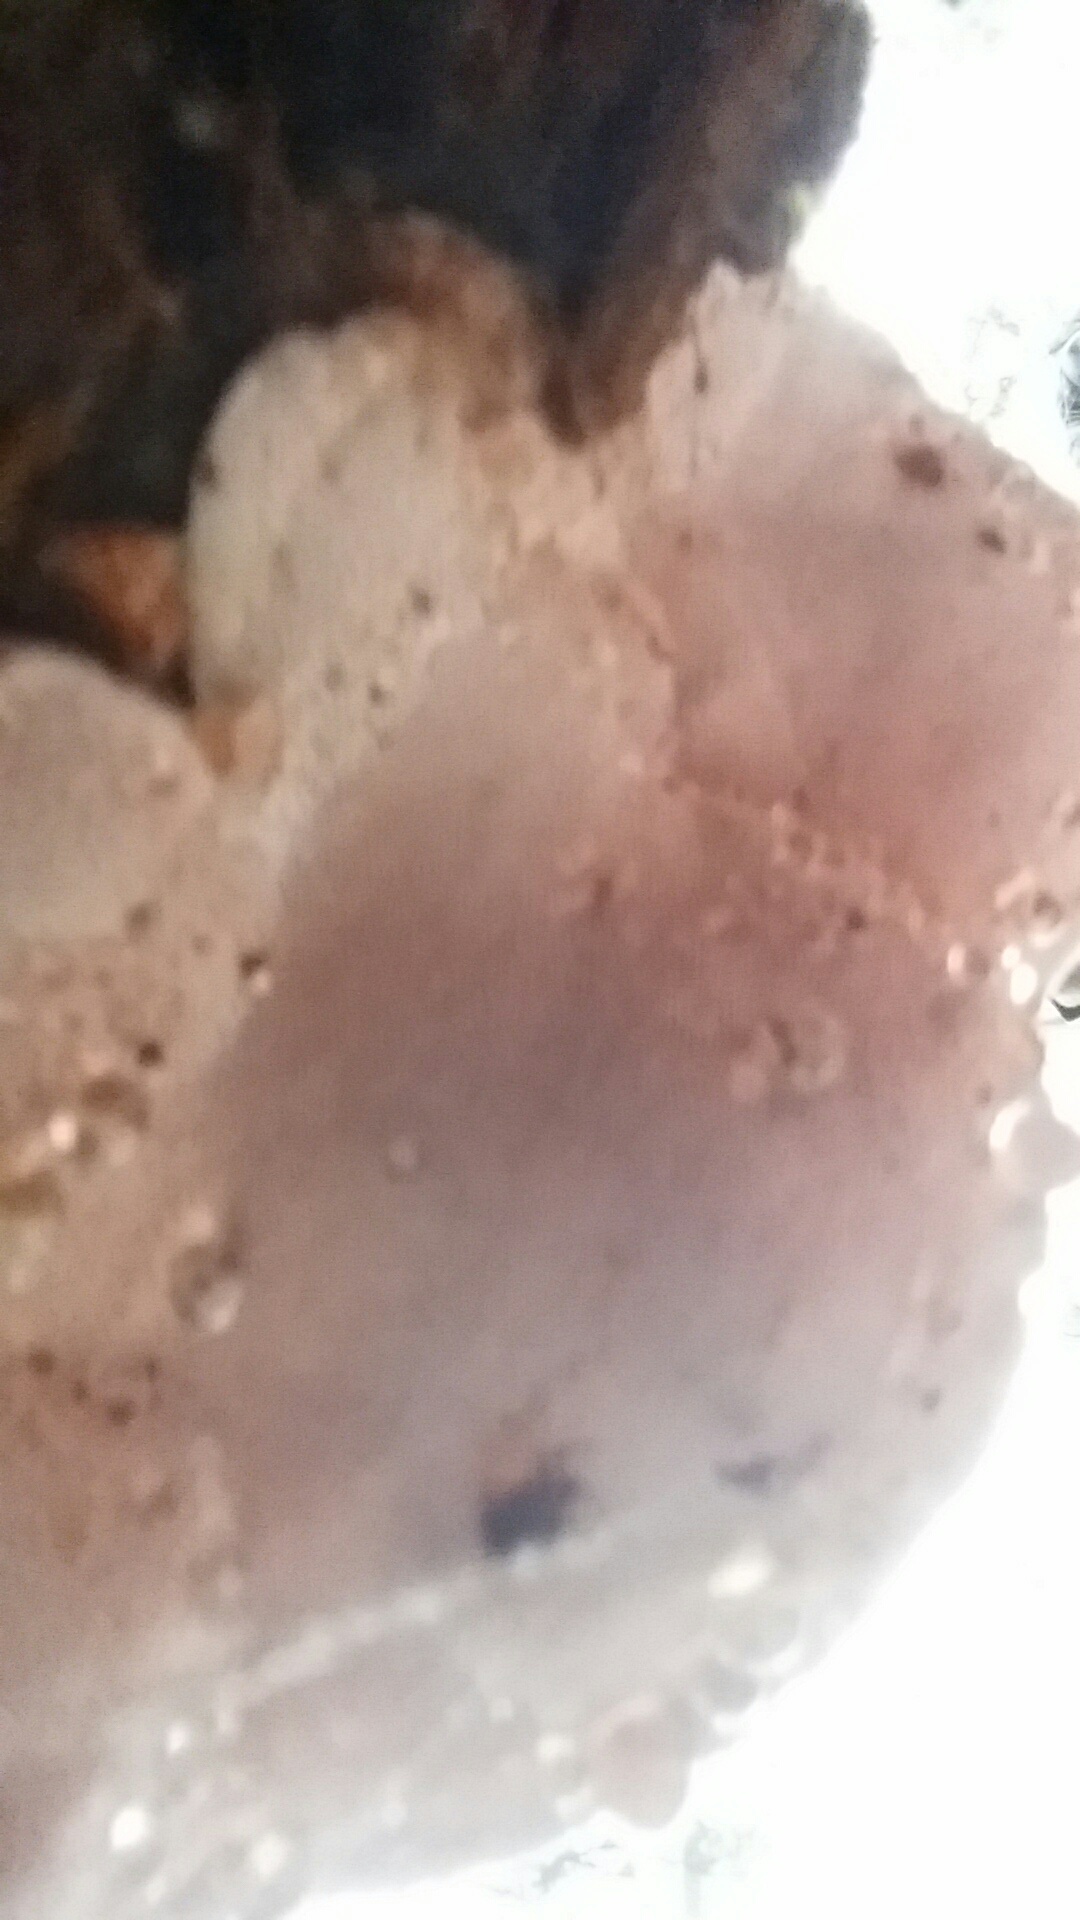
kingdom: Fungi
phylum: Basidiomycota
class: Agaricomycetes
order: Polyporales
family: Fomitopsidaceae
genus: Rhodofomes
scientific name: Rhodofomes cajanderi
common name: Rosy conk
